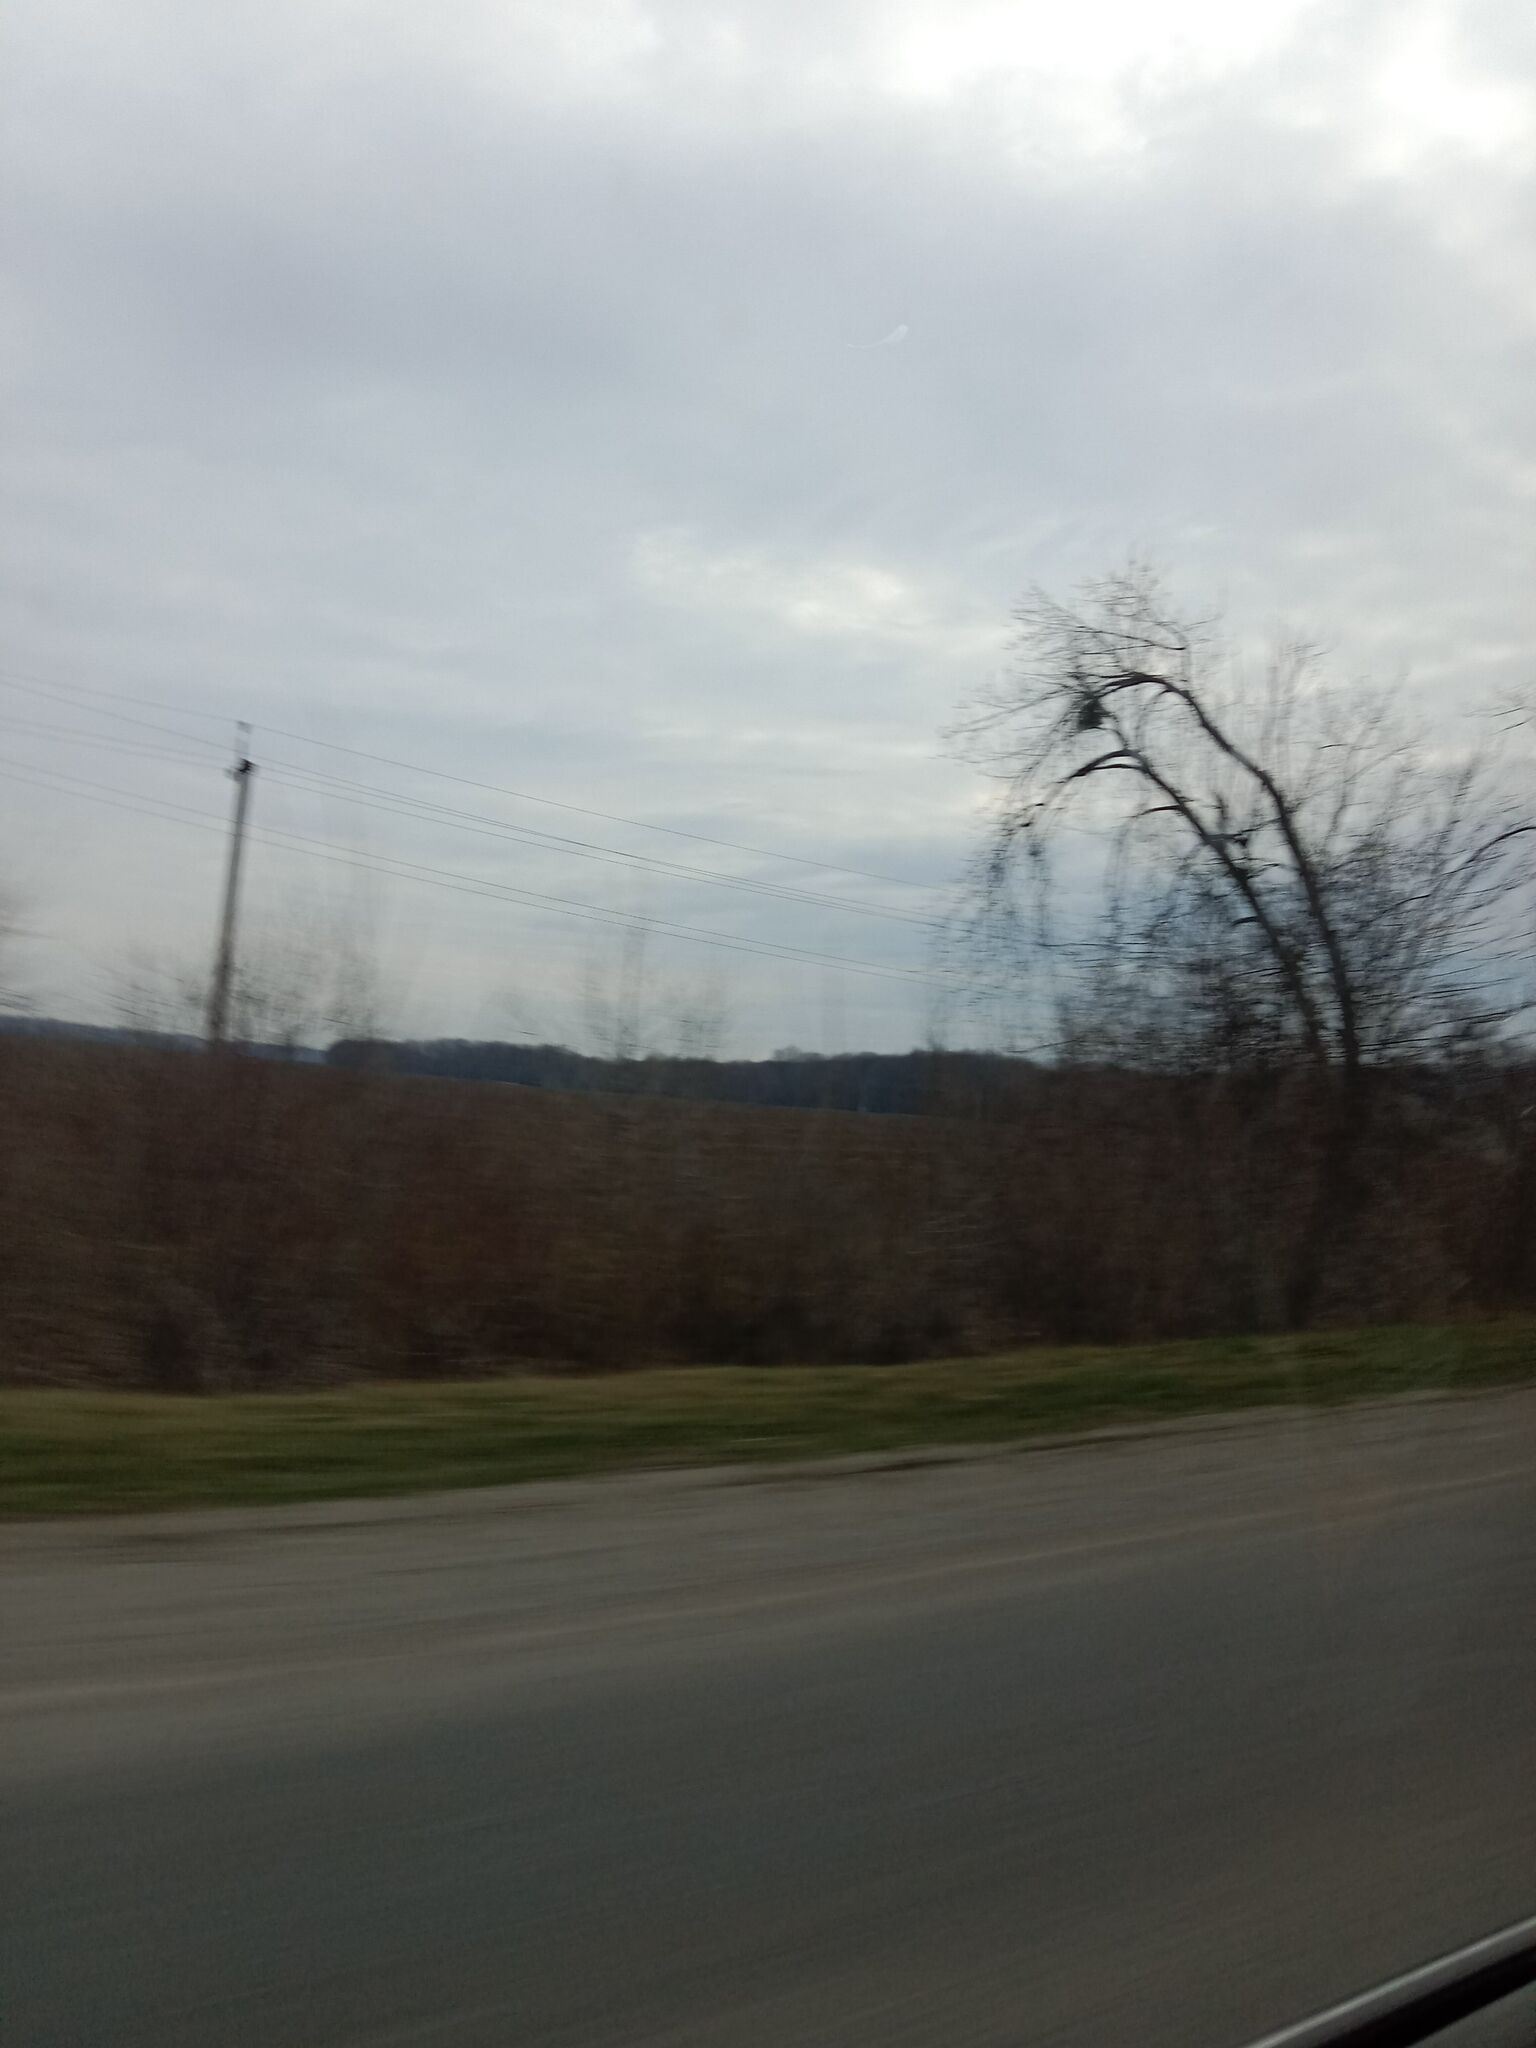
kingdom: Plantae
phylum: Tracheophyta
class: Magnoliopsida
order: Santalales
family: Viscaceae
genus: Viscum
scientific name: Viscum album
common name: Mistletoe
